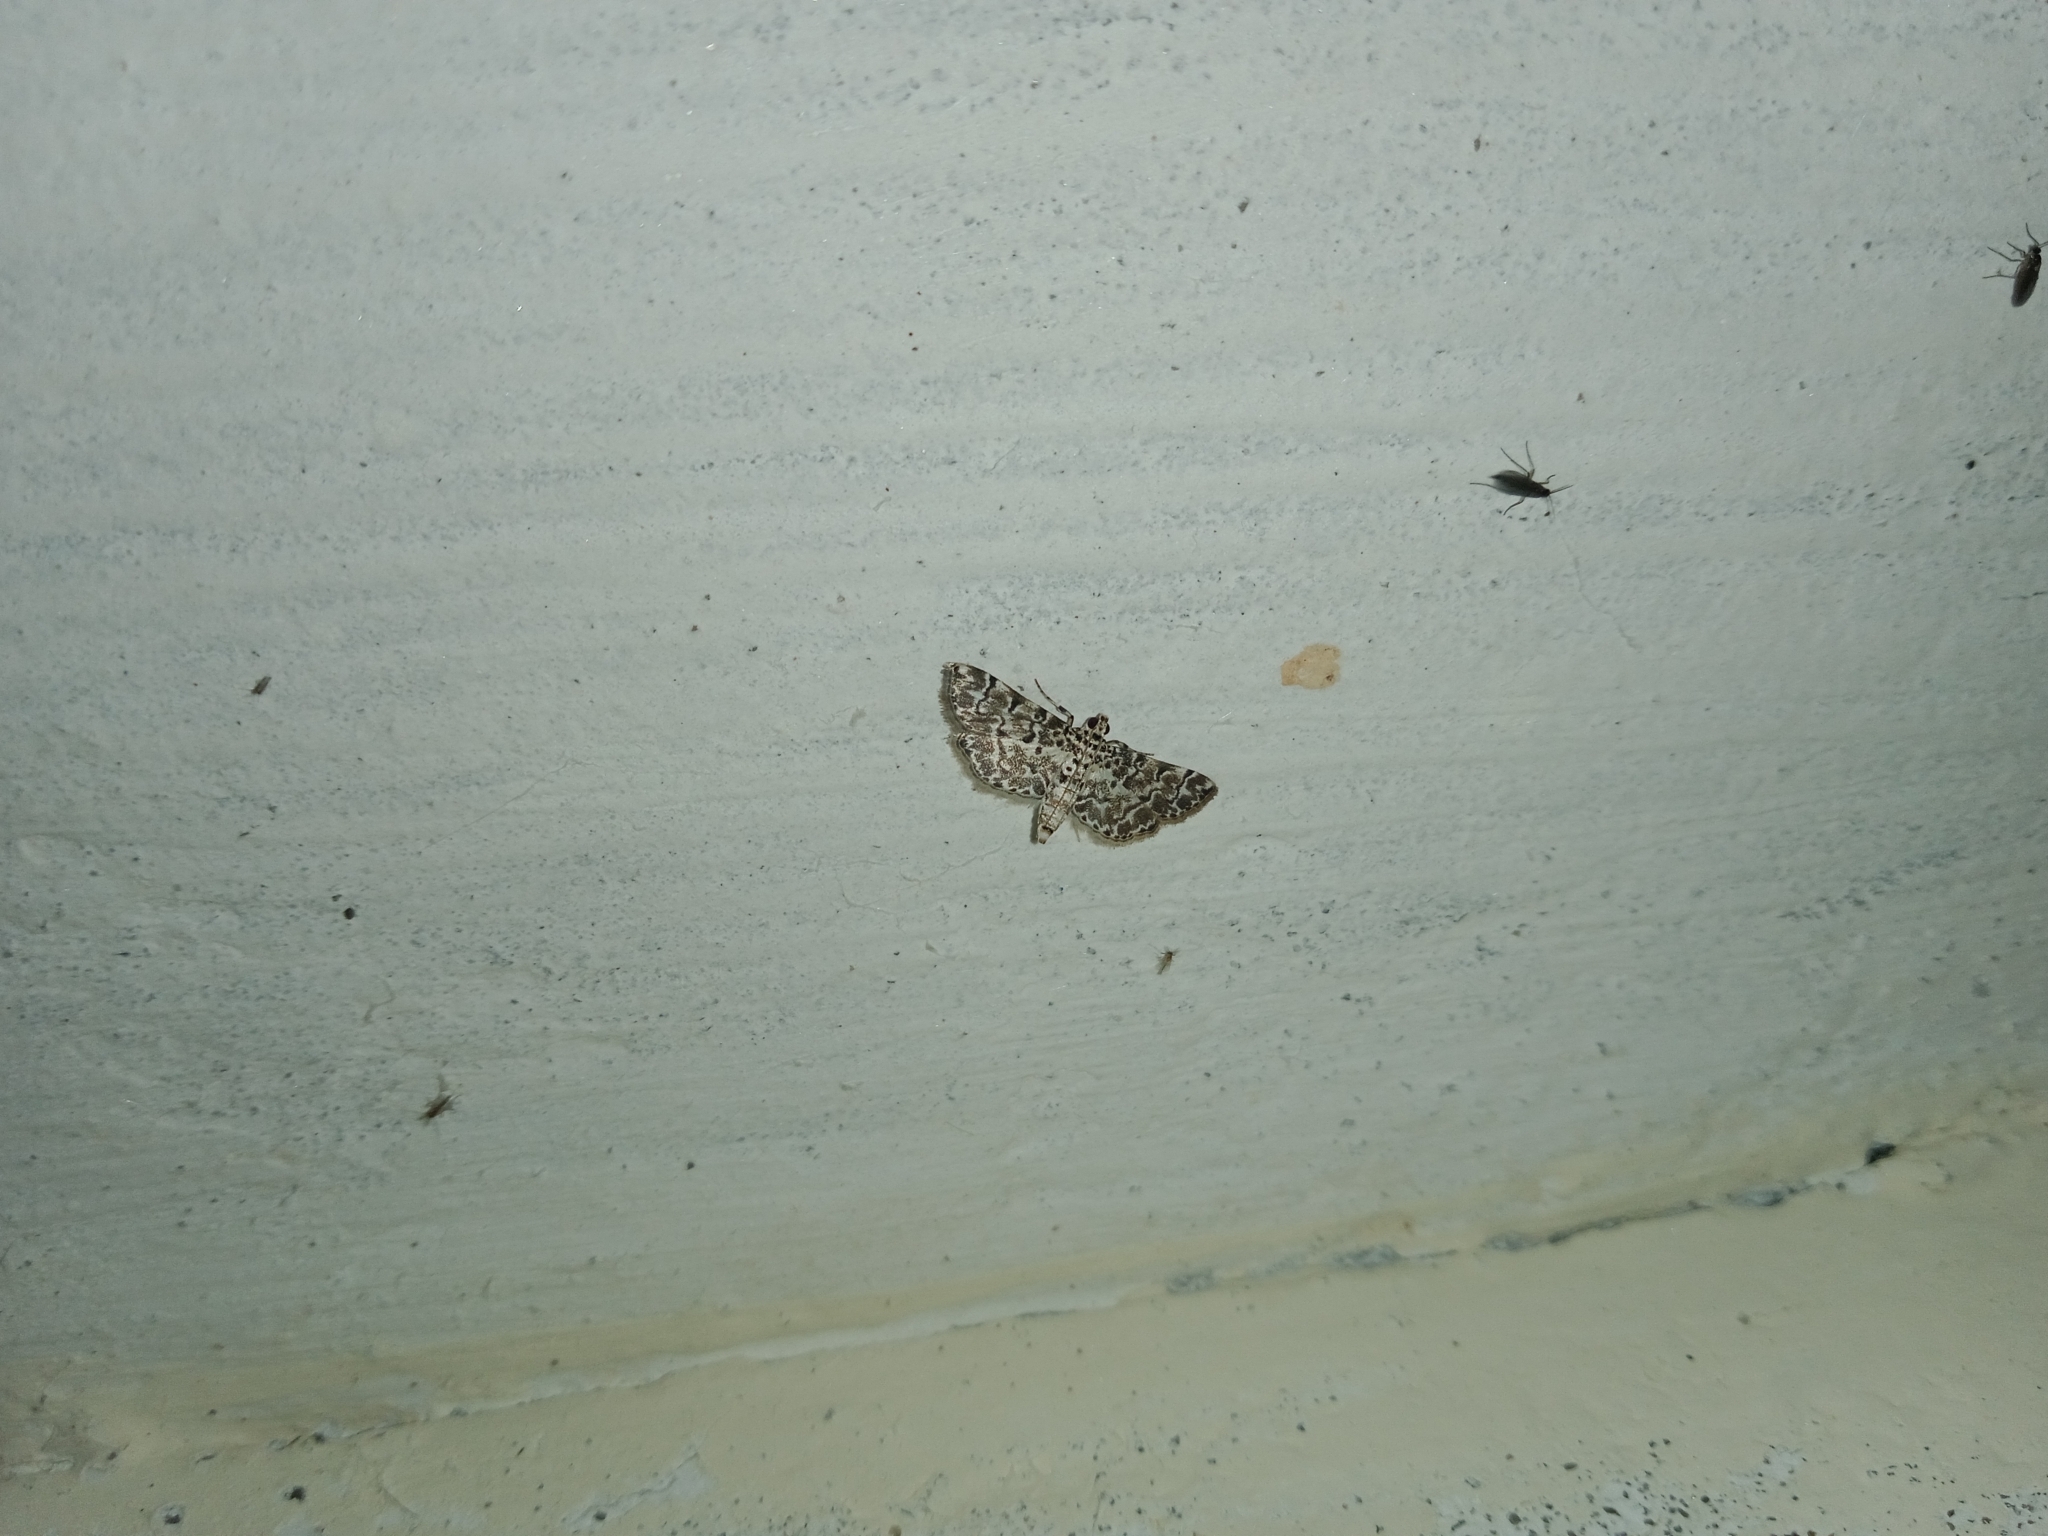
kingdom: Animalia
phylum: Arthropoda
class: Insecta
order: Lepidoptera
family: Crambidae
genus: Metoeca
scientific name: Metoeca foedalis
